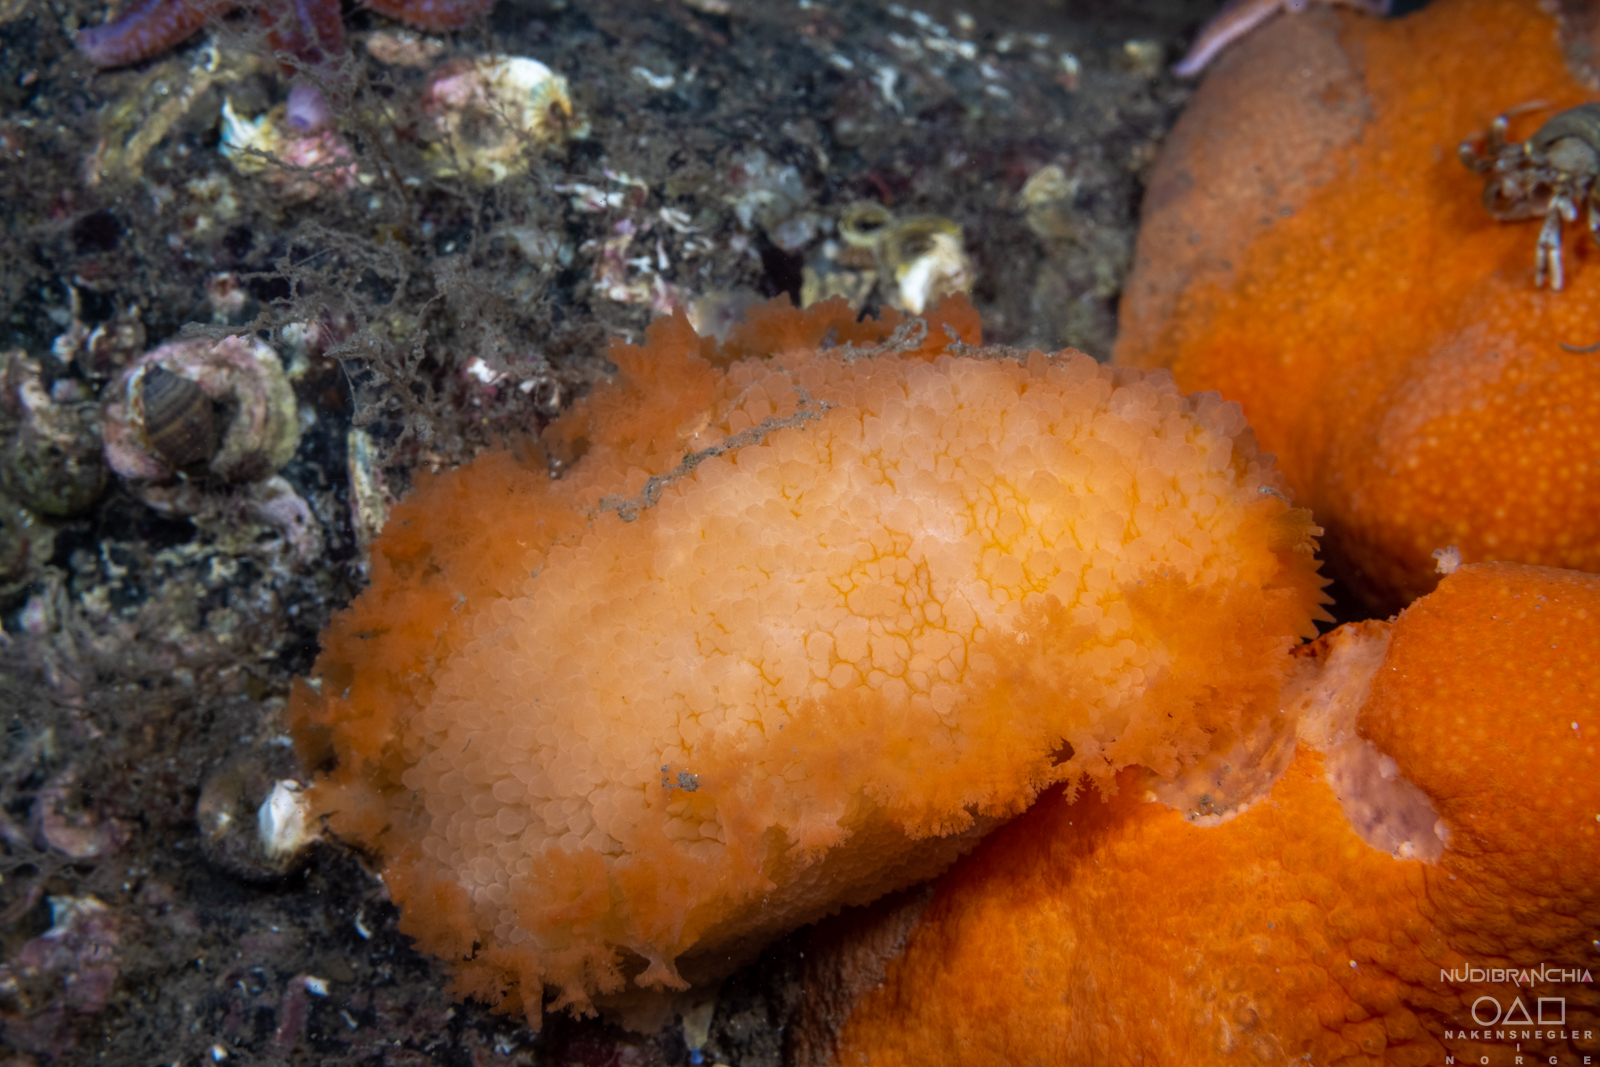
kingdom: Animalia
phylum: Mollusca
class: Gastropoda
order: Nudibranchia
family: Tritoniidae
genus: Tritonia
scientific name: Tritonia hombergii
